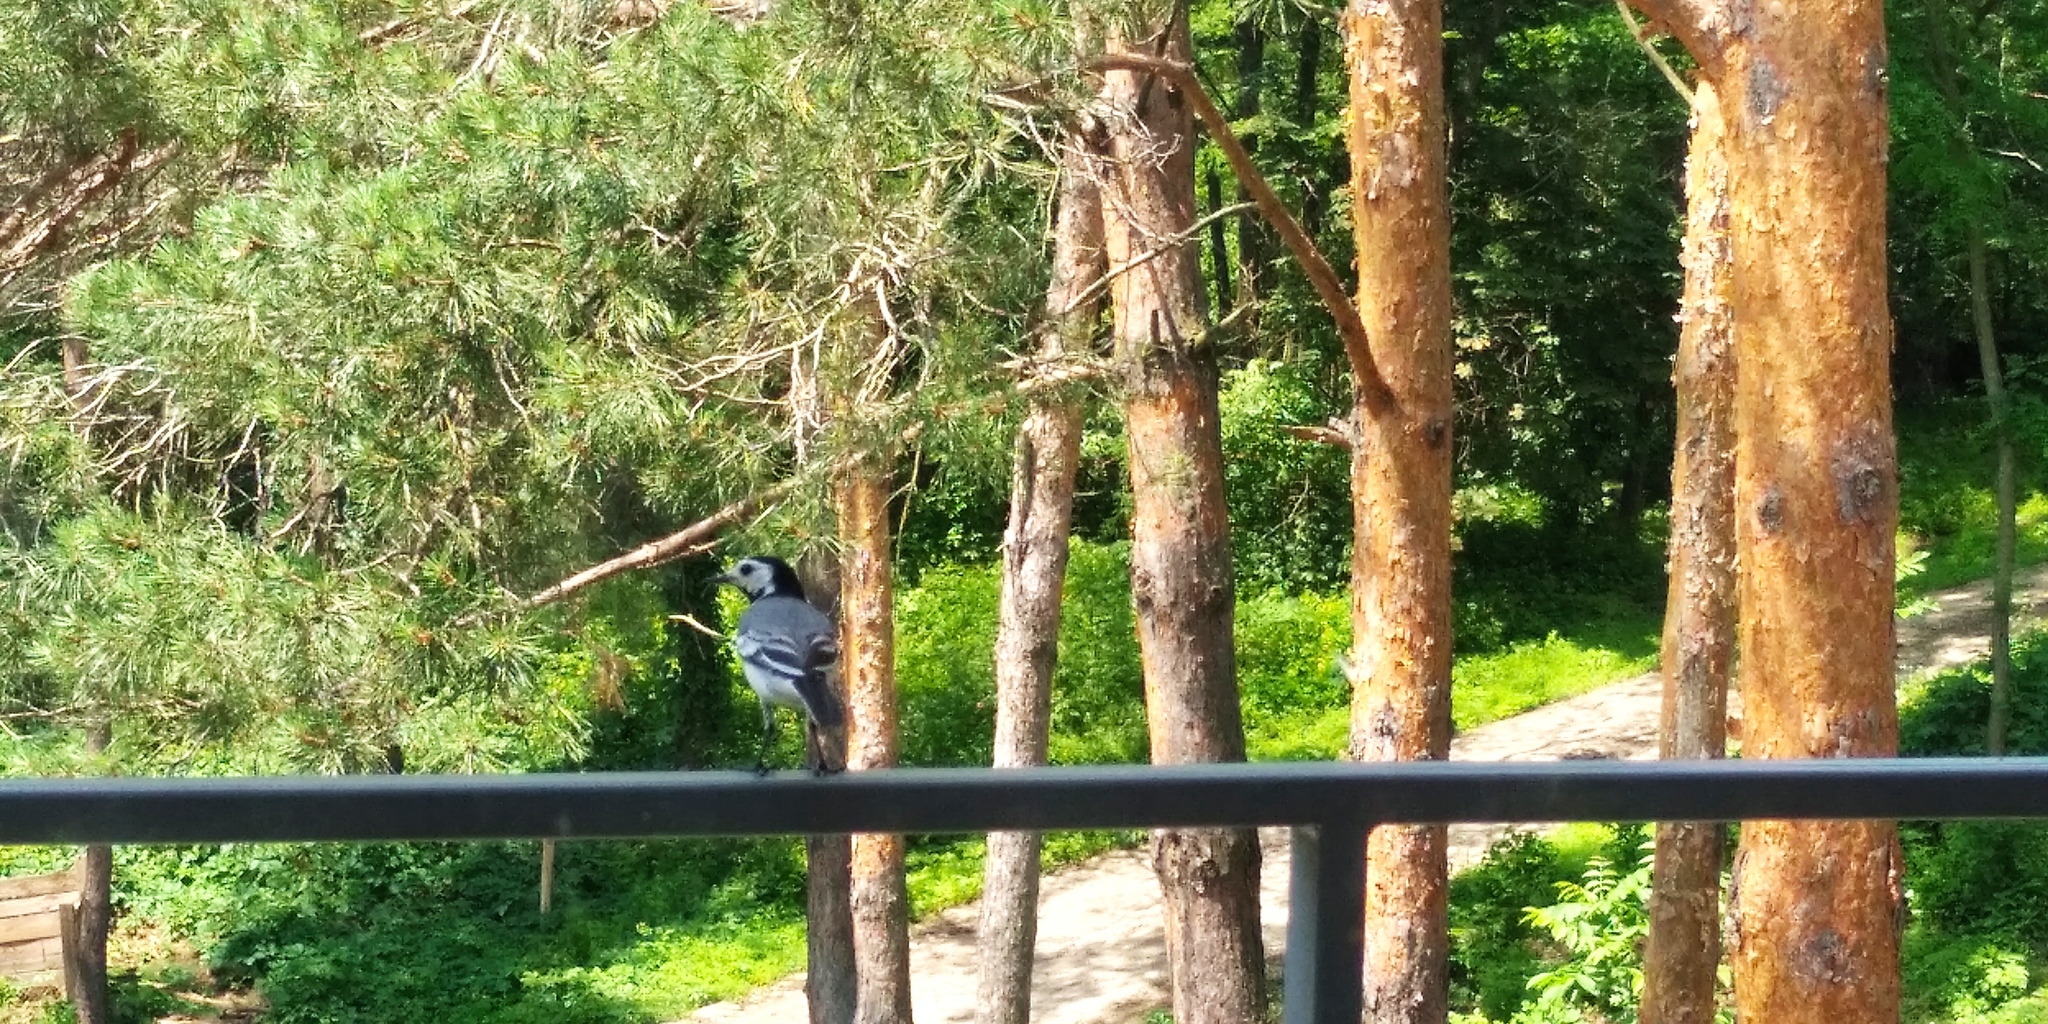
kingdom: Animalia
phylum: Chordata
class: Aves
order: Passeriformes
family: Motacillidae
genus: Motacilla
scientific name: Motacilla alba
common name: White wagtail
